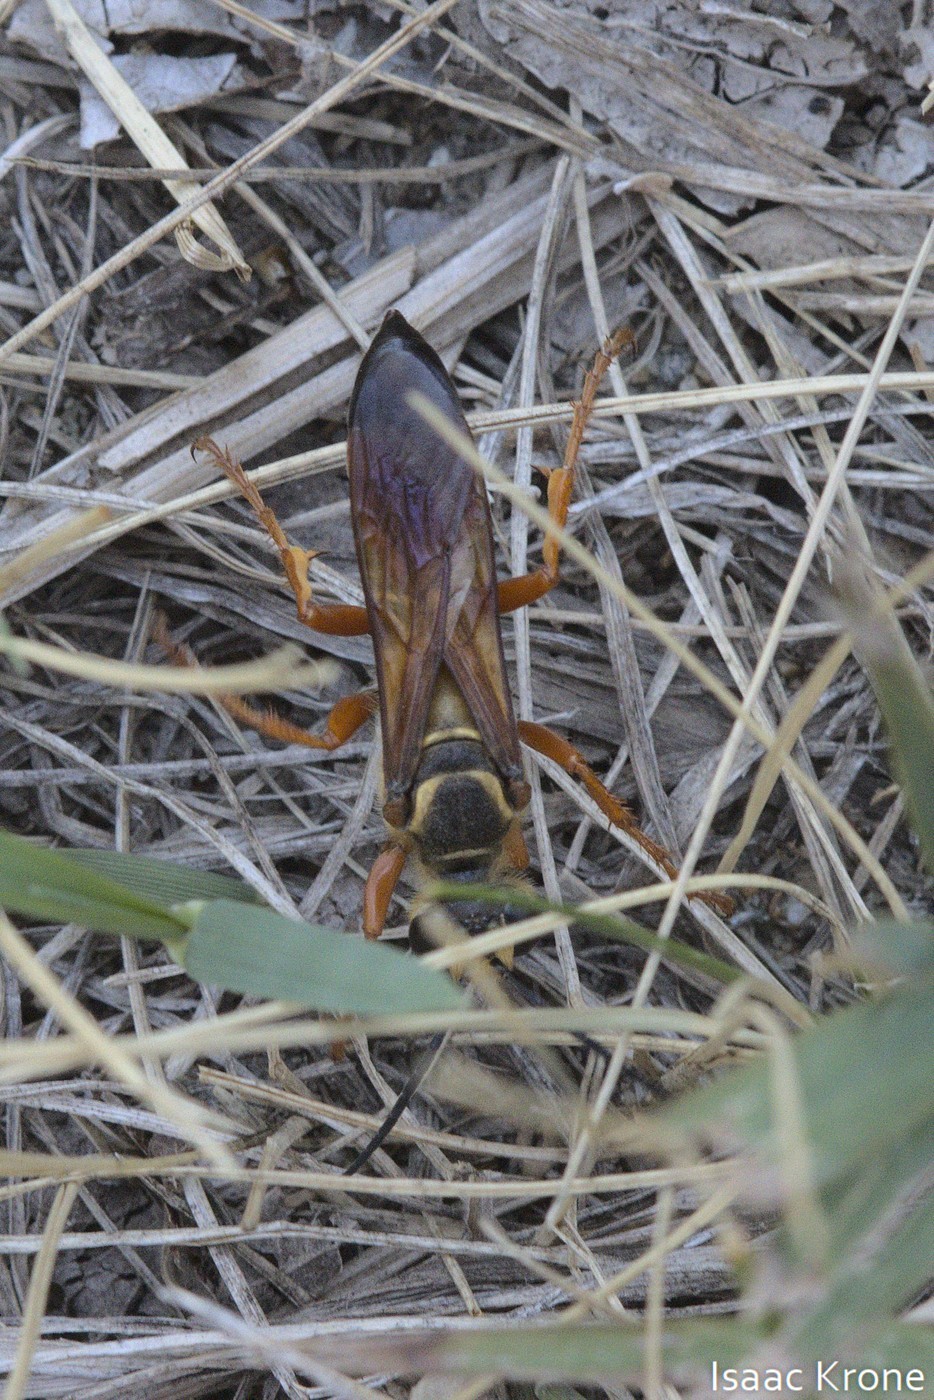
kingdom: Animalia
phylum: Arthropoda
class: Insecta
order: Hymenoptera
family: Sphecidae
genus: Sphex
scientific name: Sphex ichneumoneus
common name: Great golden digger wasp
